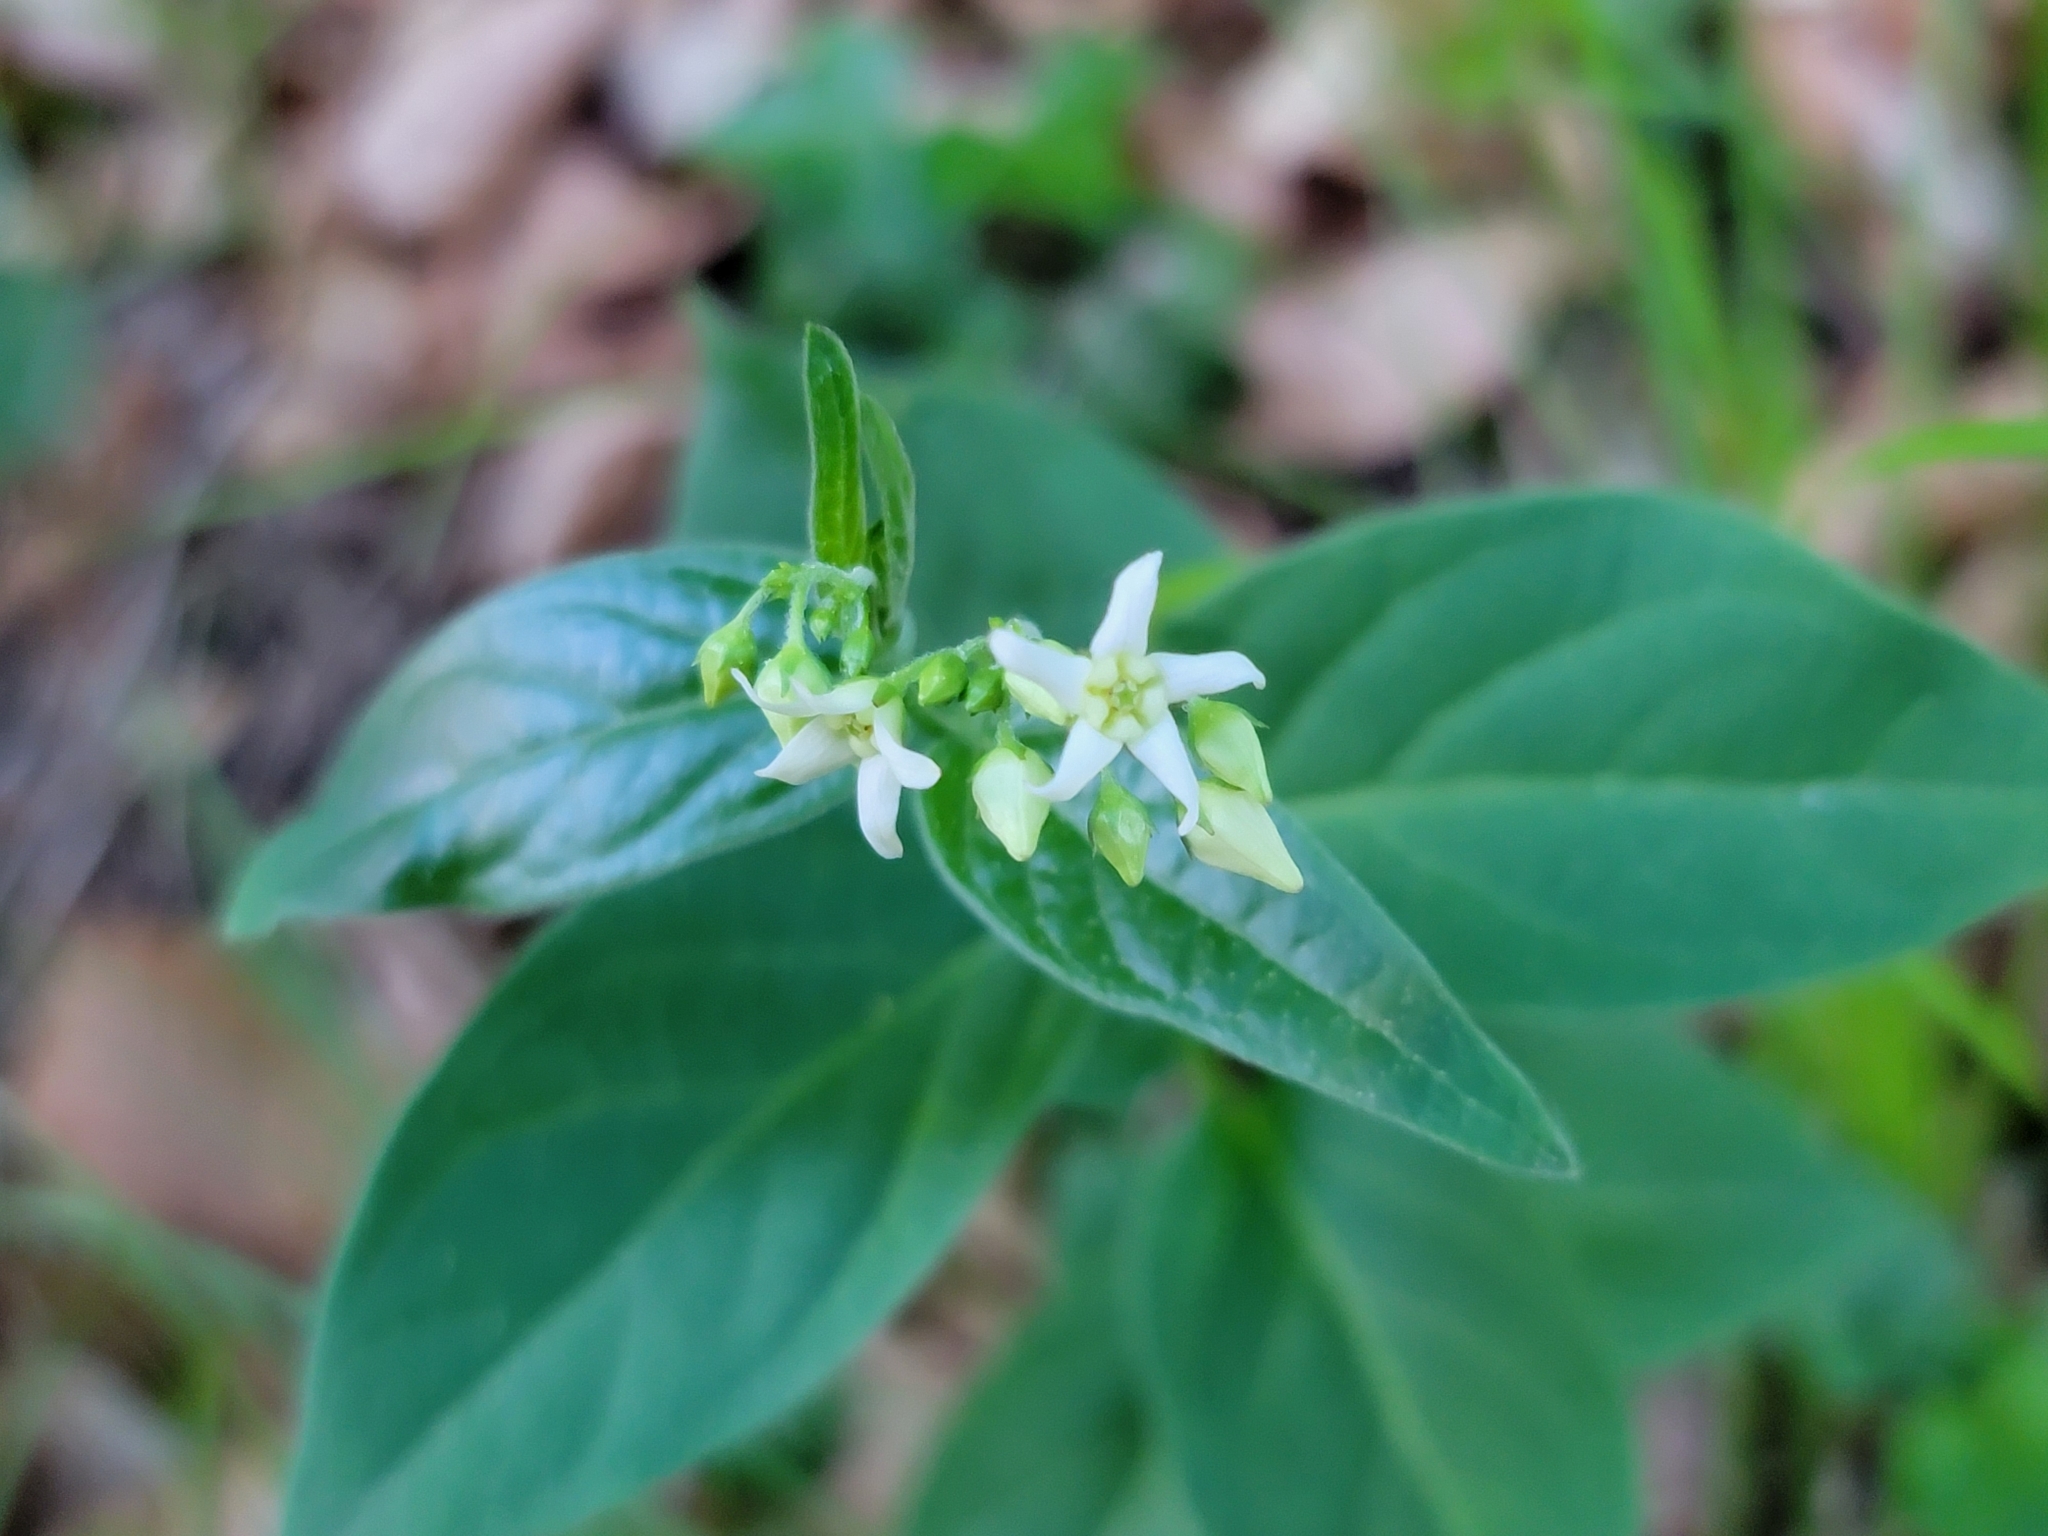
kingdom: Plantae
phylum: Tracheophyta
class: Magnoliopsida
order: Gentianales
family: Apocynaceae
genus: Vincetoxicum
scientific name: Vincetoxicum hirundinaria
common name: White swallowwort
